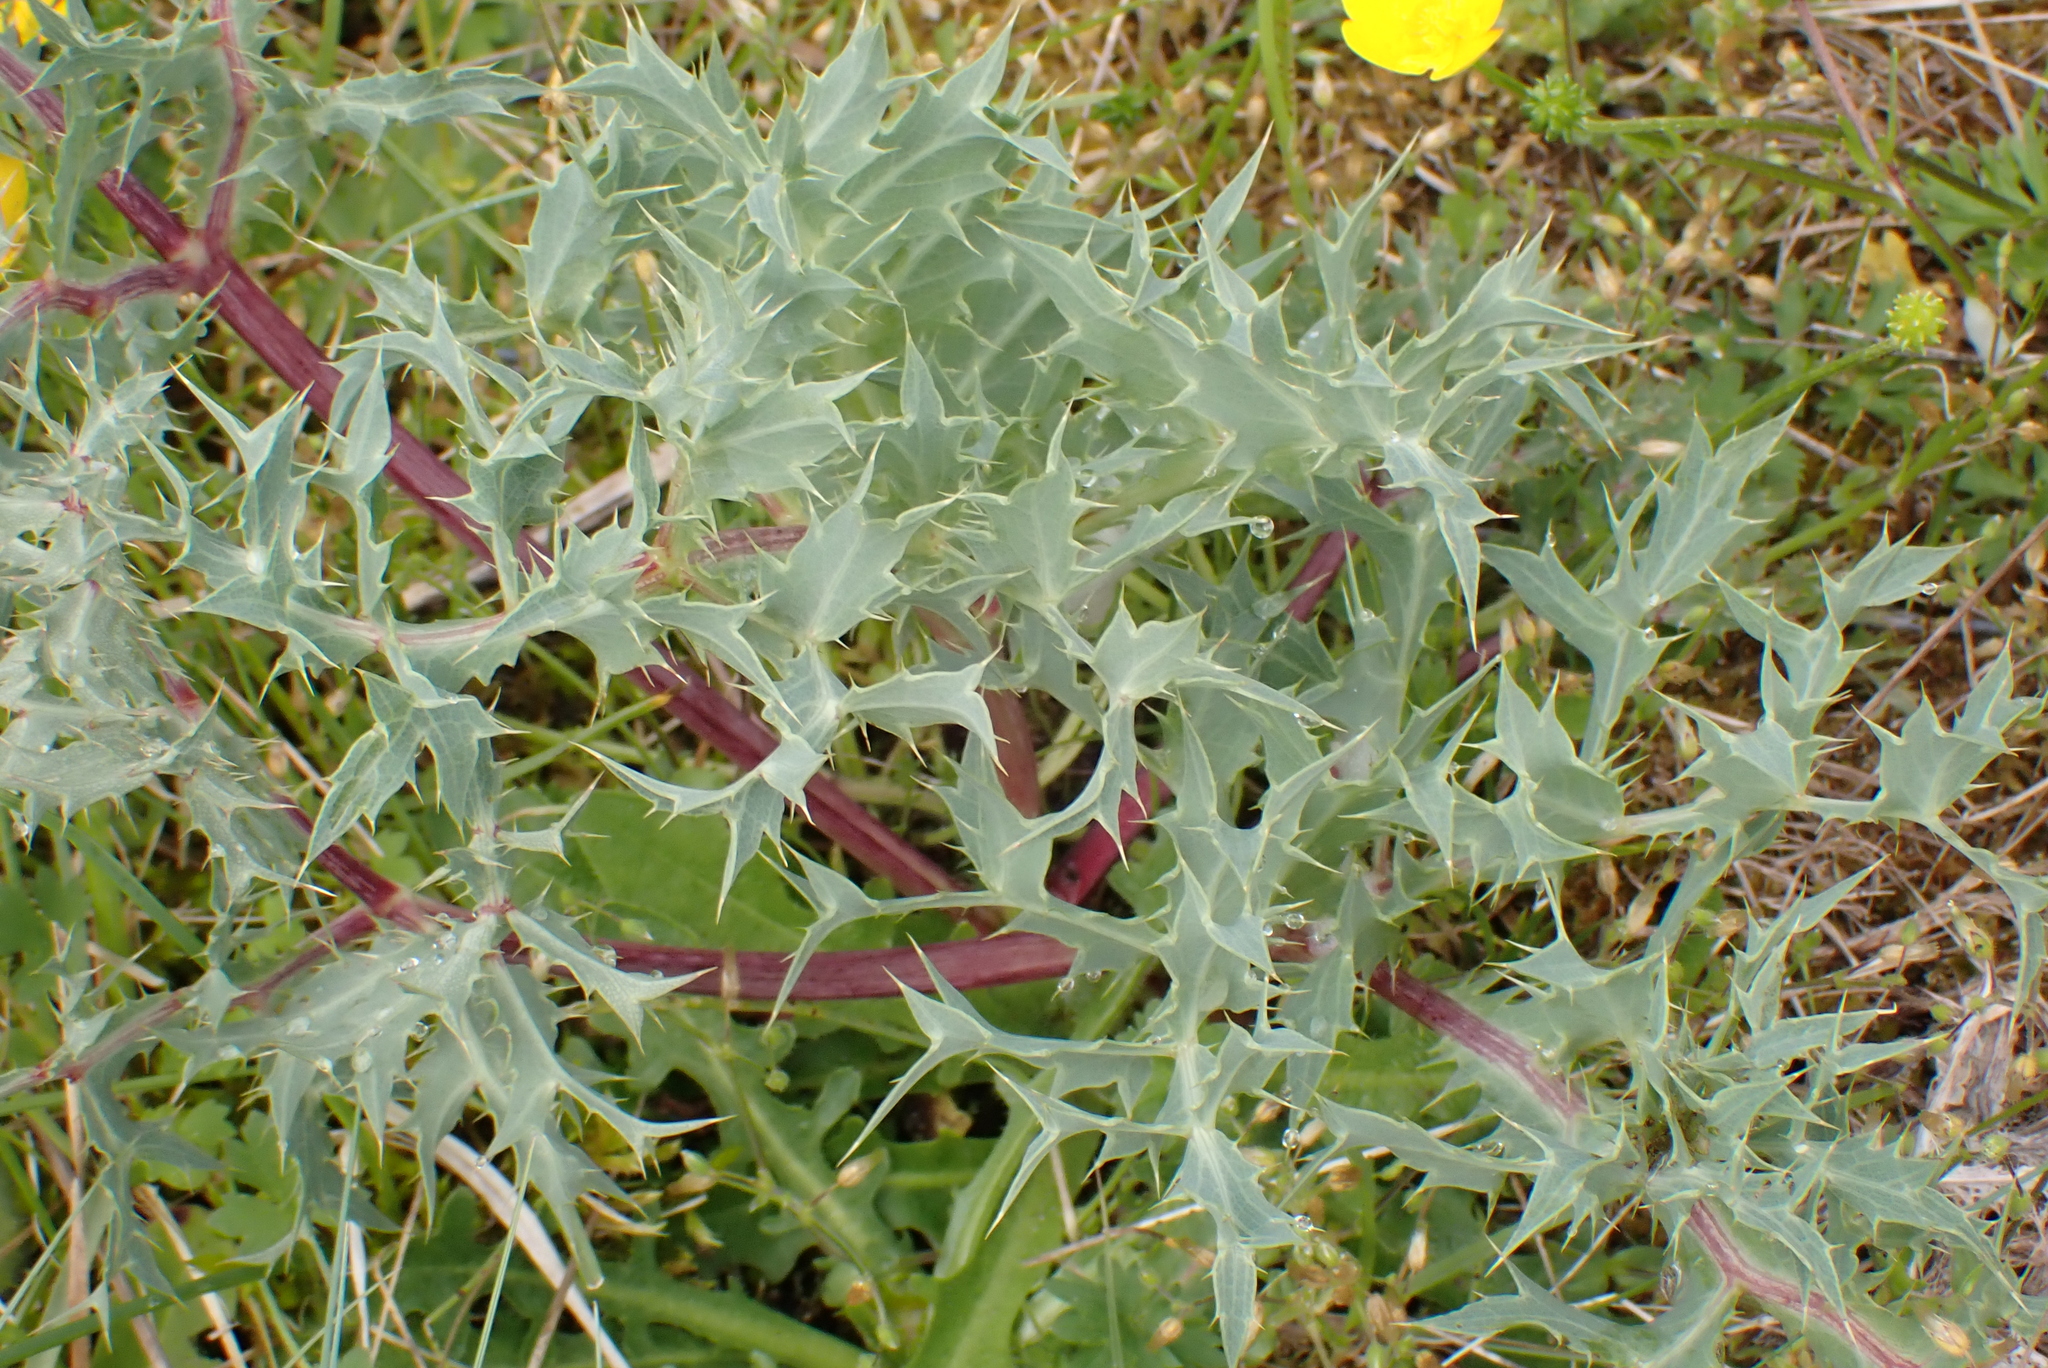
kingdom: Plantae
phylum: Tracheophyta
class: Magnoliopsida
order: Apiales
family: Apiaceae
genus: Eryngium
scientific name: Eryngium campestre
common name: Field eryngo
